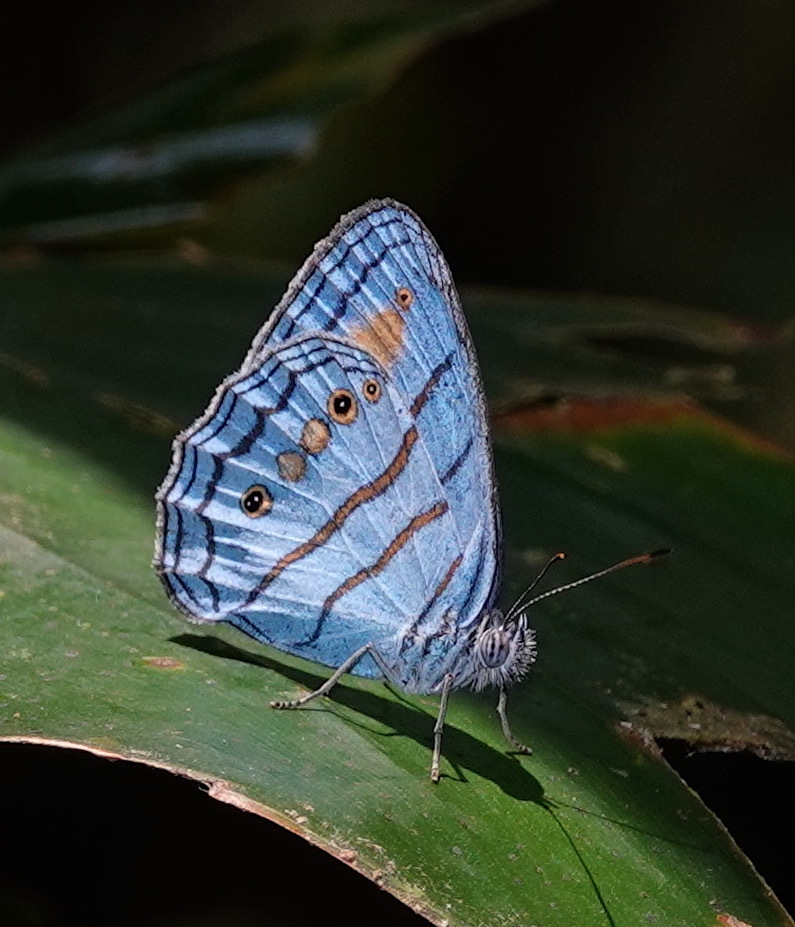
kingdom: Animalia
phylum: Arthropoda
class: Insecta
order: Lepidoptera
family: Nymphalidae
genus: Caeruleuptychia
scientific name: Caeruleuptychia helios
